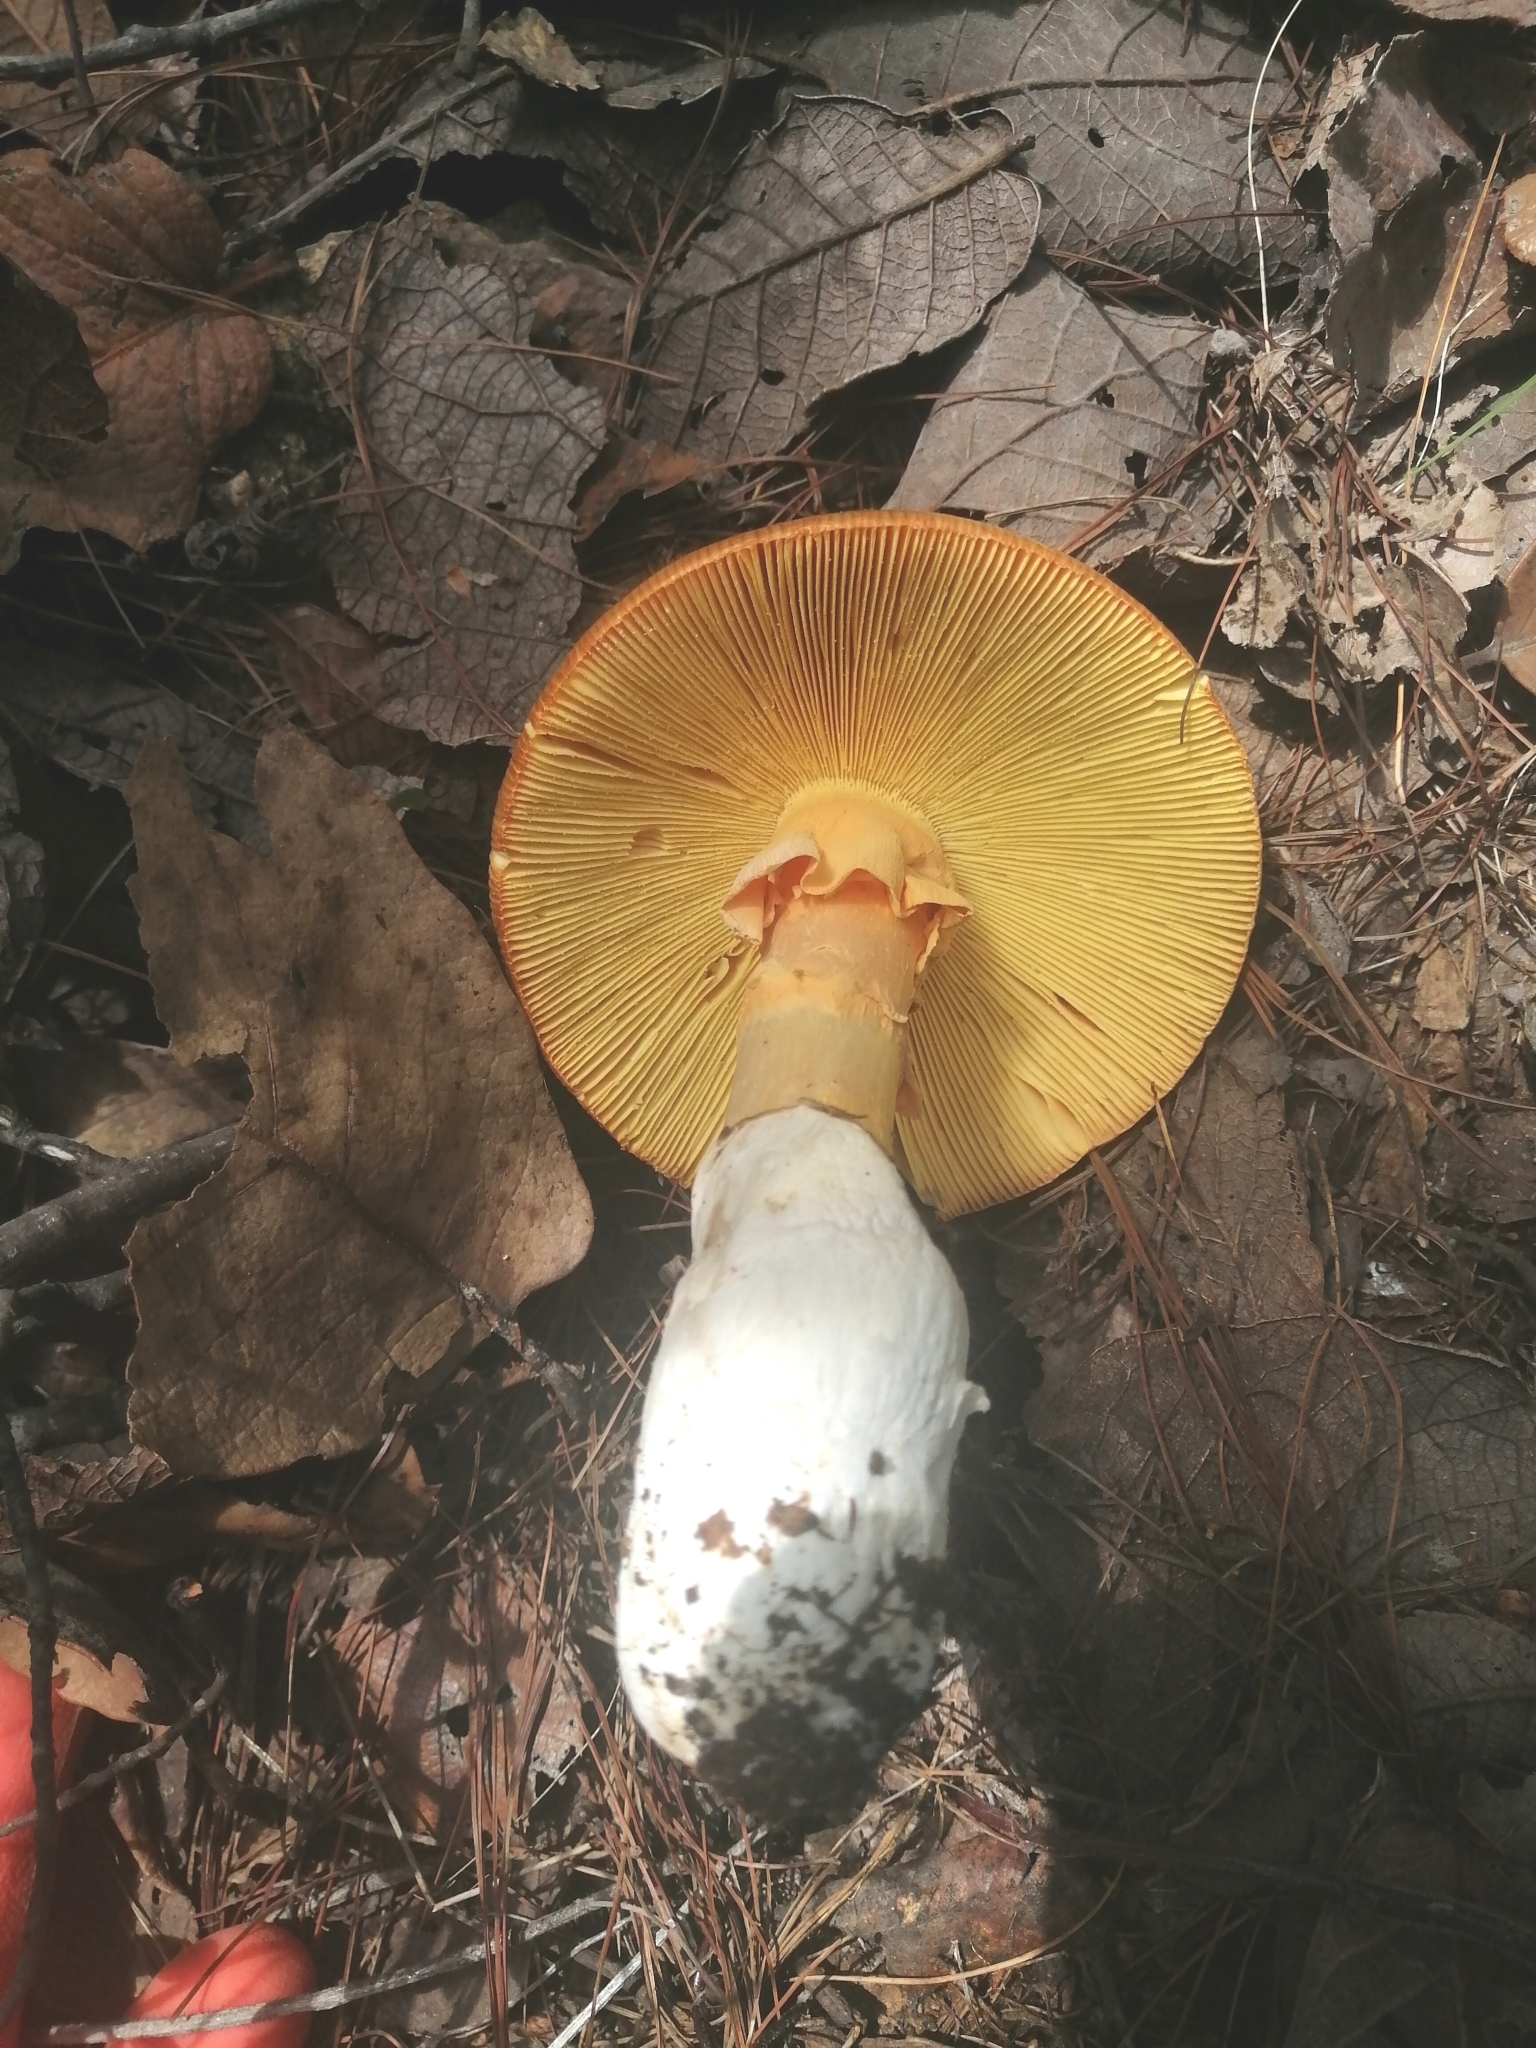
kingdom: Fungi
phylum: Basidiomycota
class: Agaricomycetes
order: Agaricales
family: Amanitaceae
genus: Amanita
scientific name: Amanita basii
